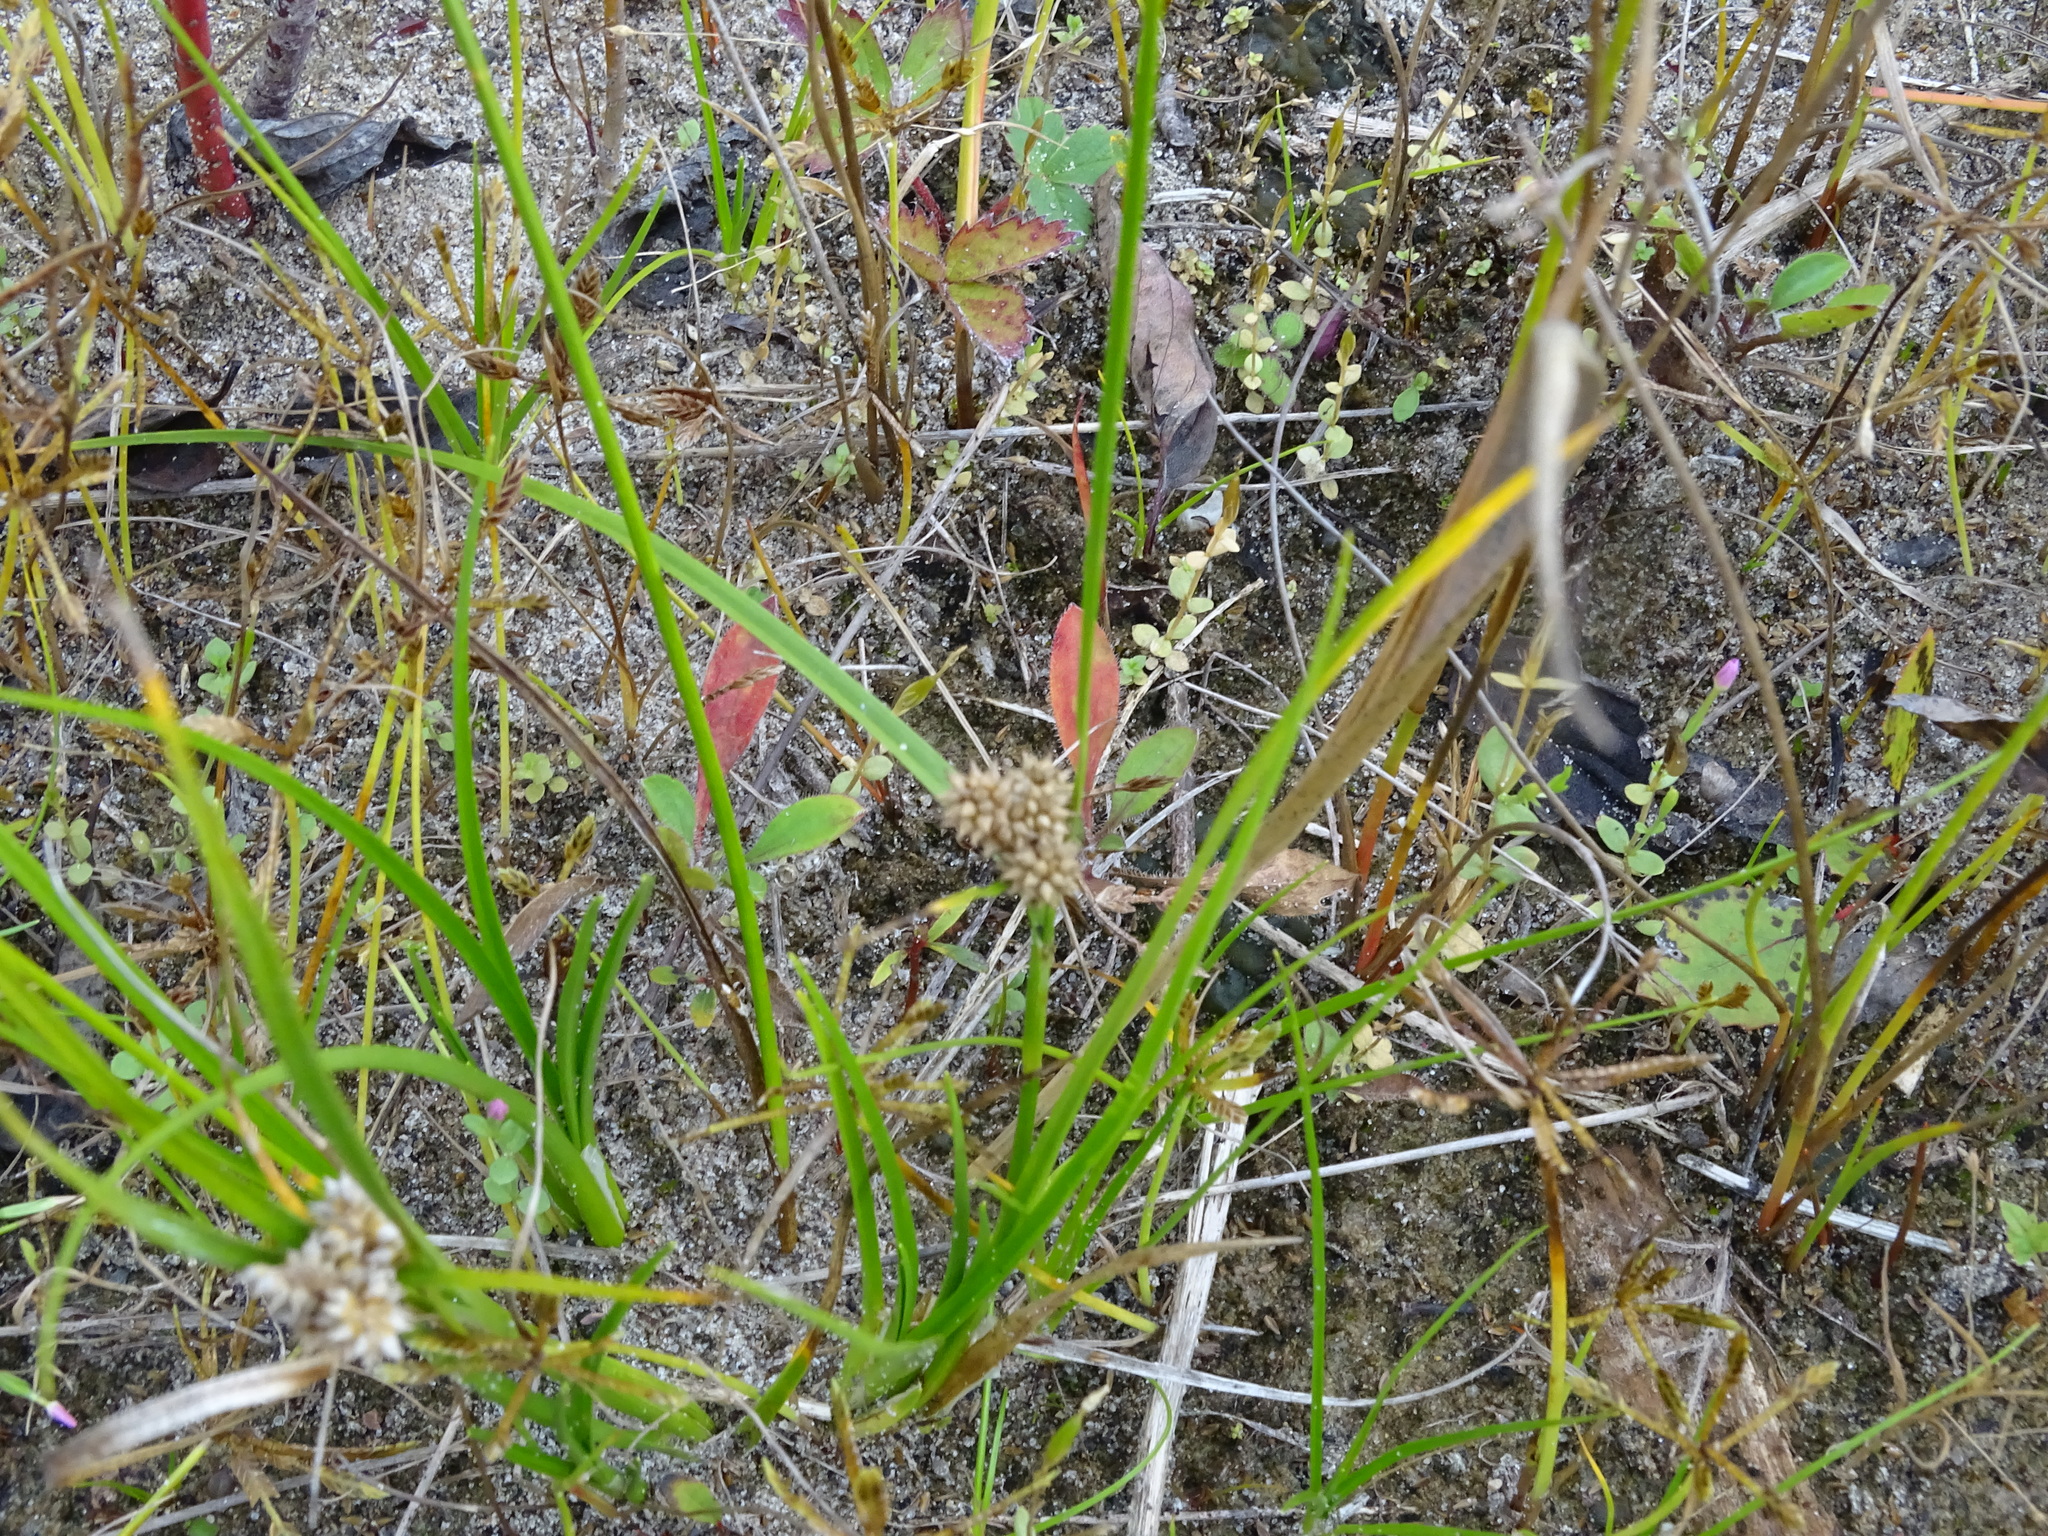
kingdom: Plantae
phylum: Tracheophyta
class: Liliopsida
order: Poales
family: Cyperaceae
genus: Carex
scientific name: Carex
